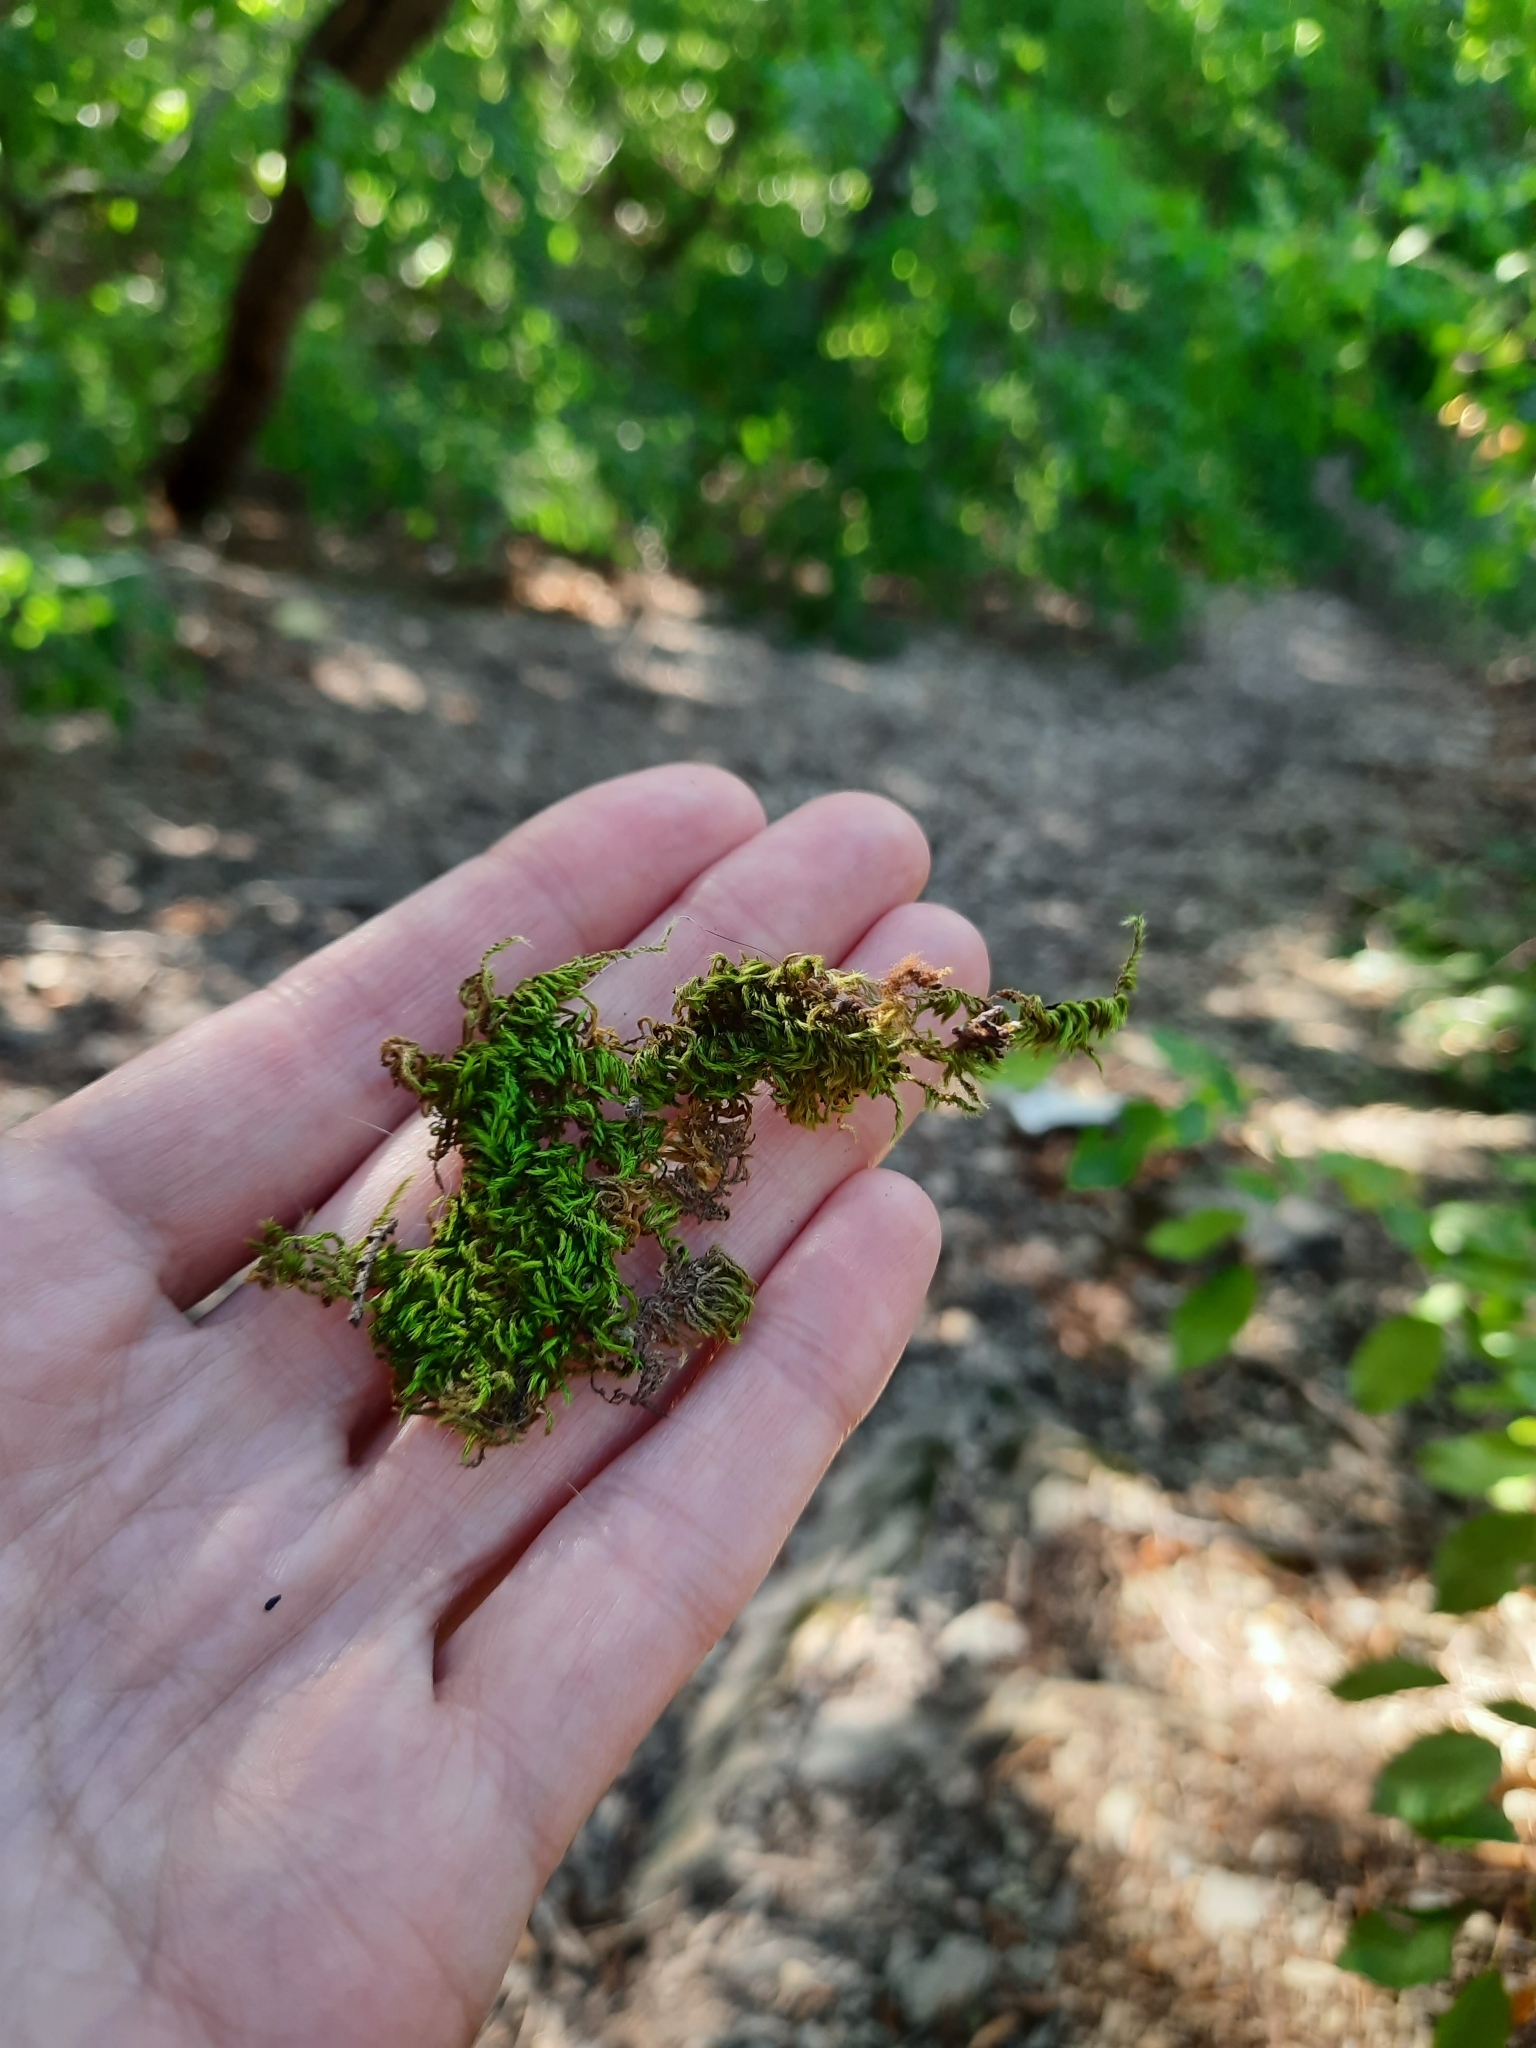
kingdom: Plantae
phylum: Bryophyta
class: Bryopsida
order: Hypnales
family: Brachytheciaceae
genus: Homalothecium
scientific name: Homalothecium sericeum
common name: Silky wall feather-moss
